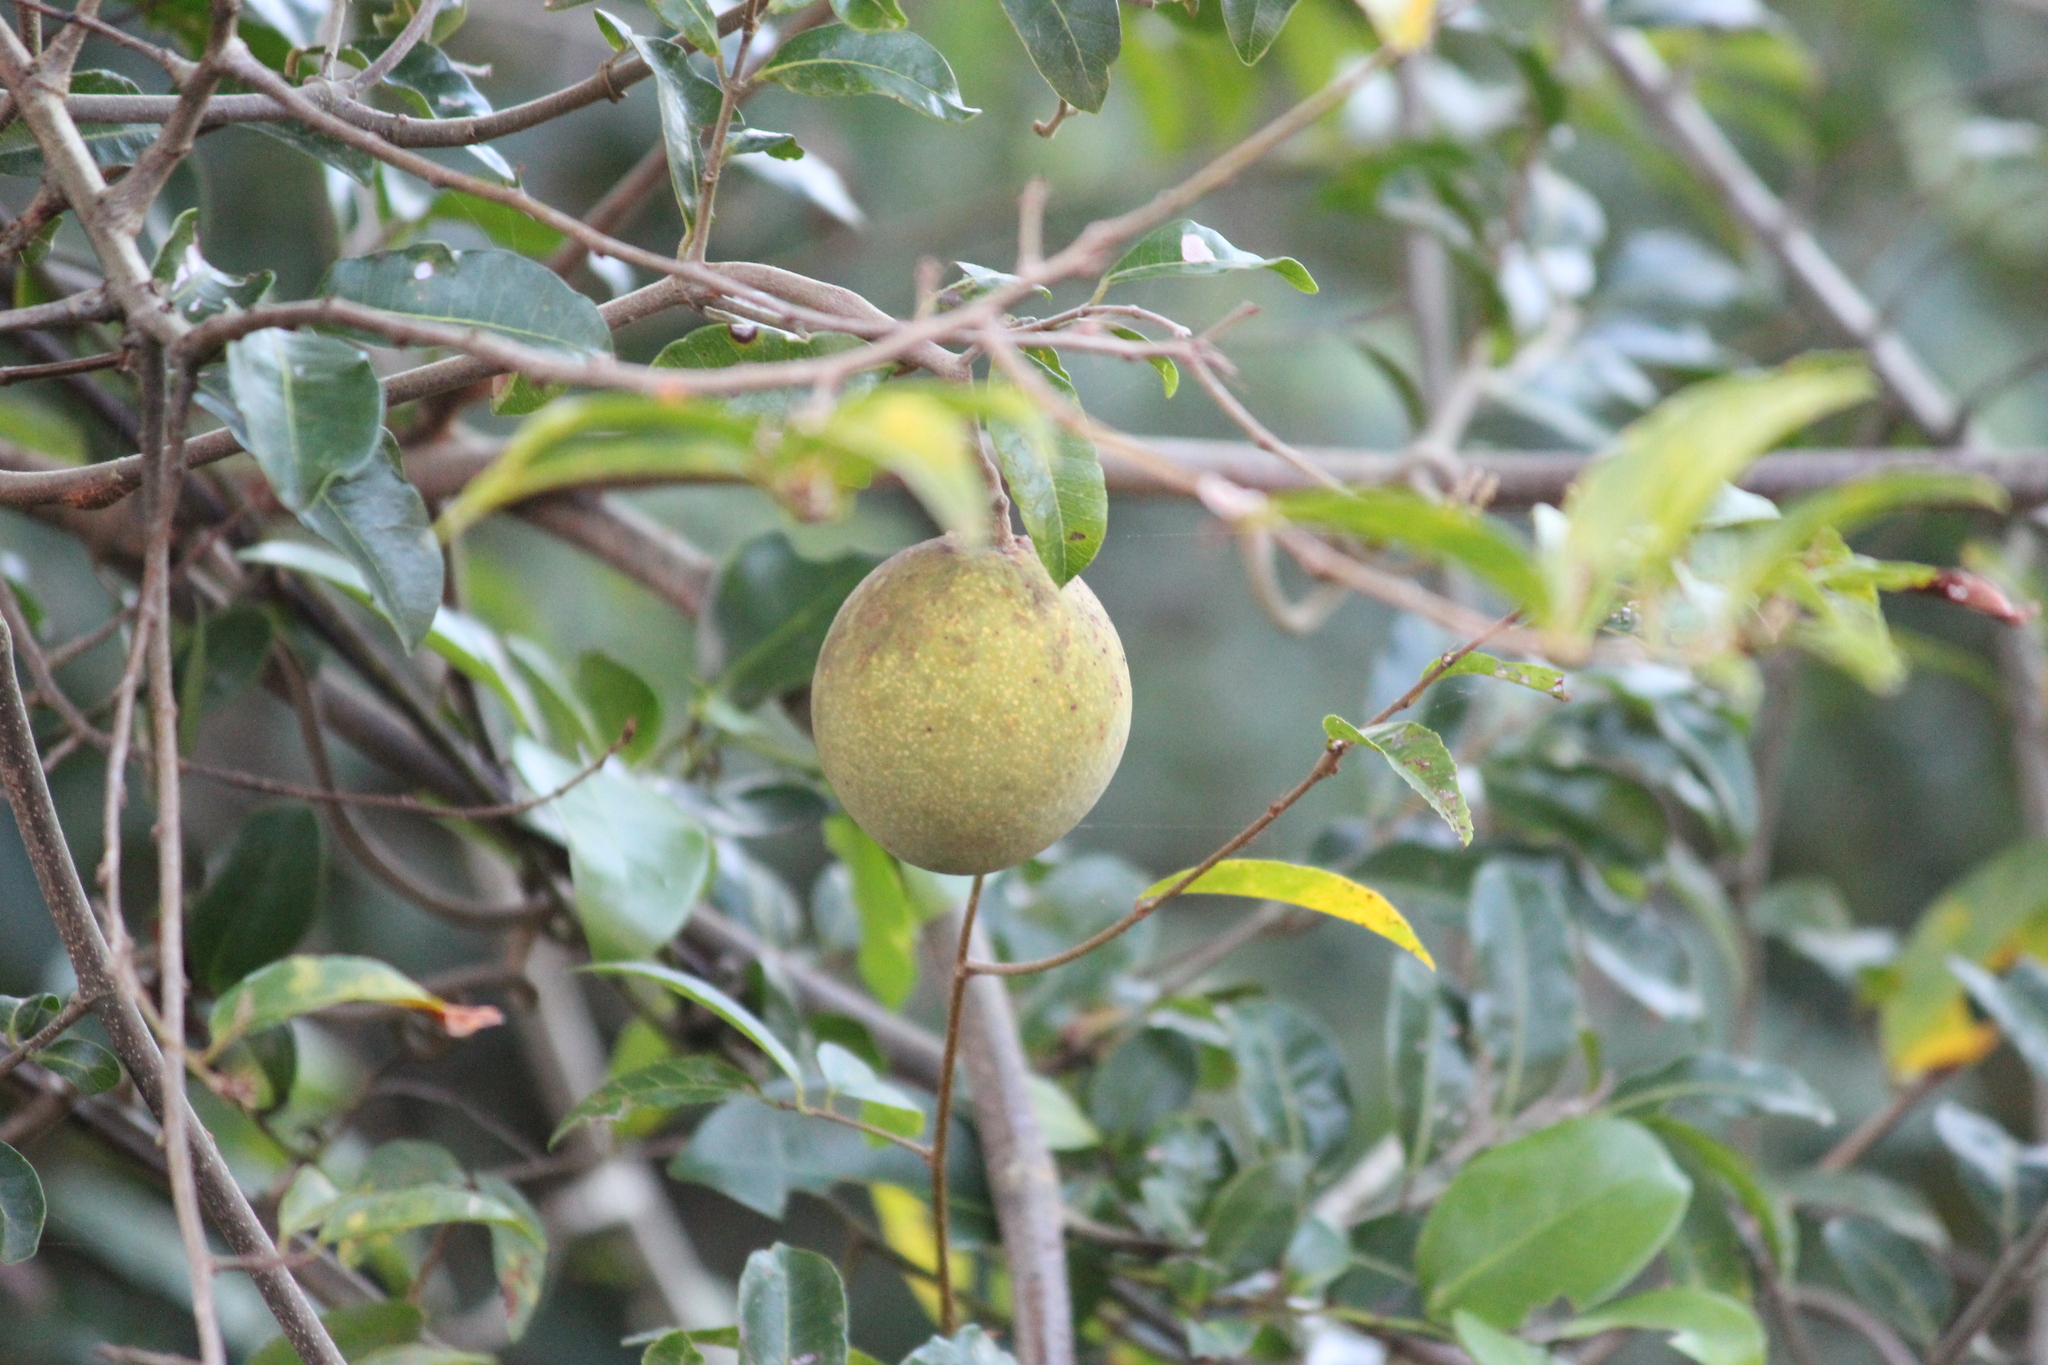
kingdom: Plantae
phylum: Tracheophyta
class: Magnoliopsida
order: Gentianales
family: Apocynaceae
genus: Landolphia
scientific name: Landolphia kirkii
